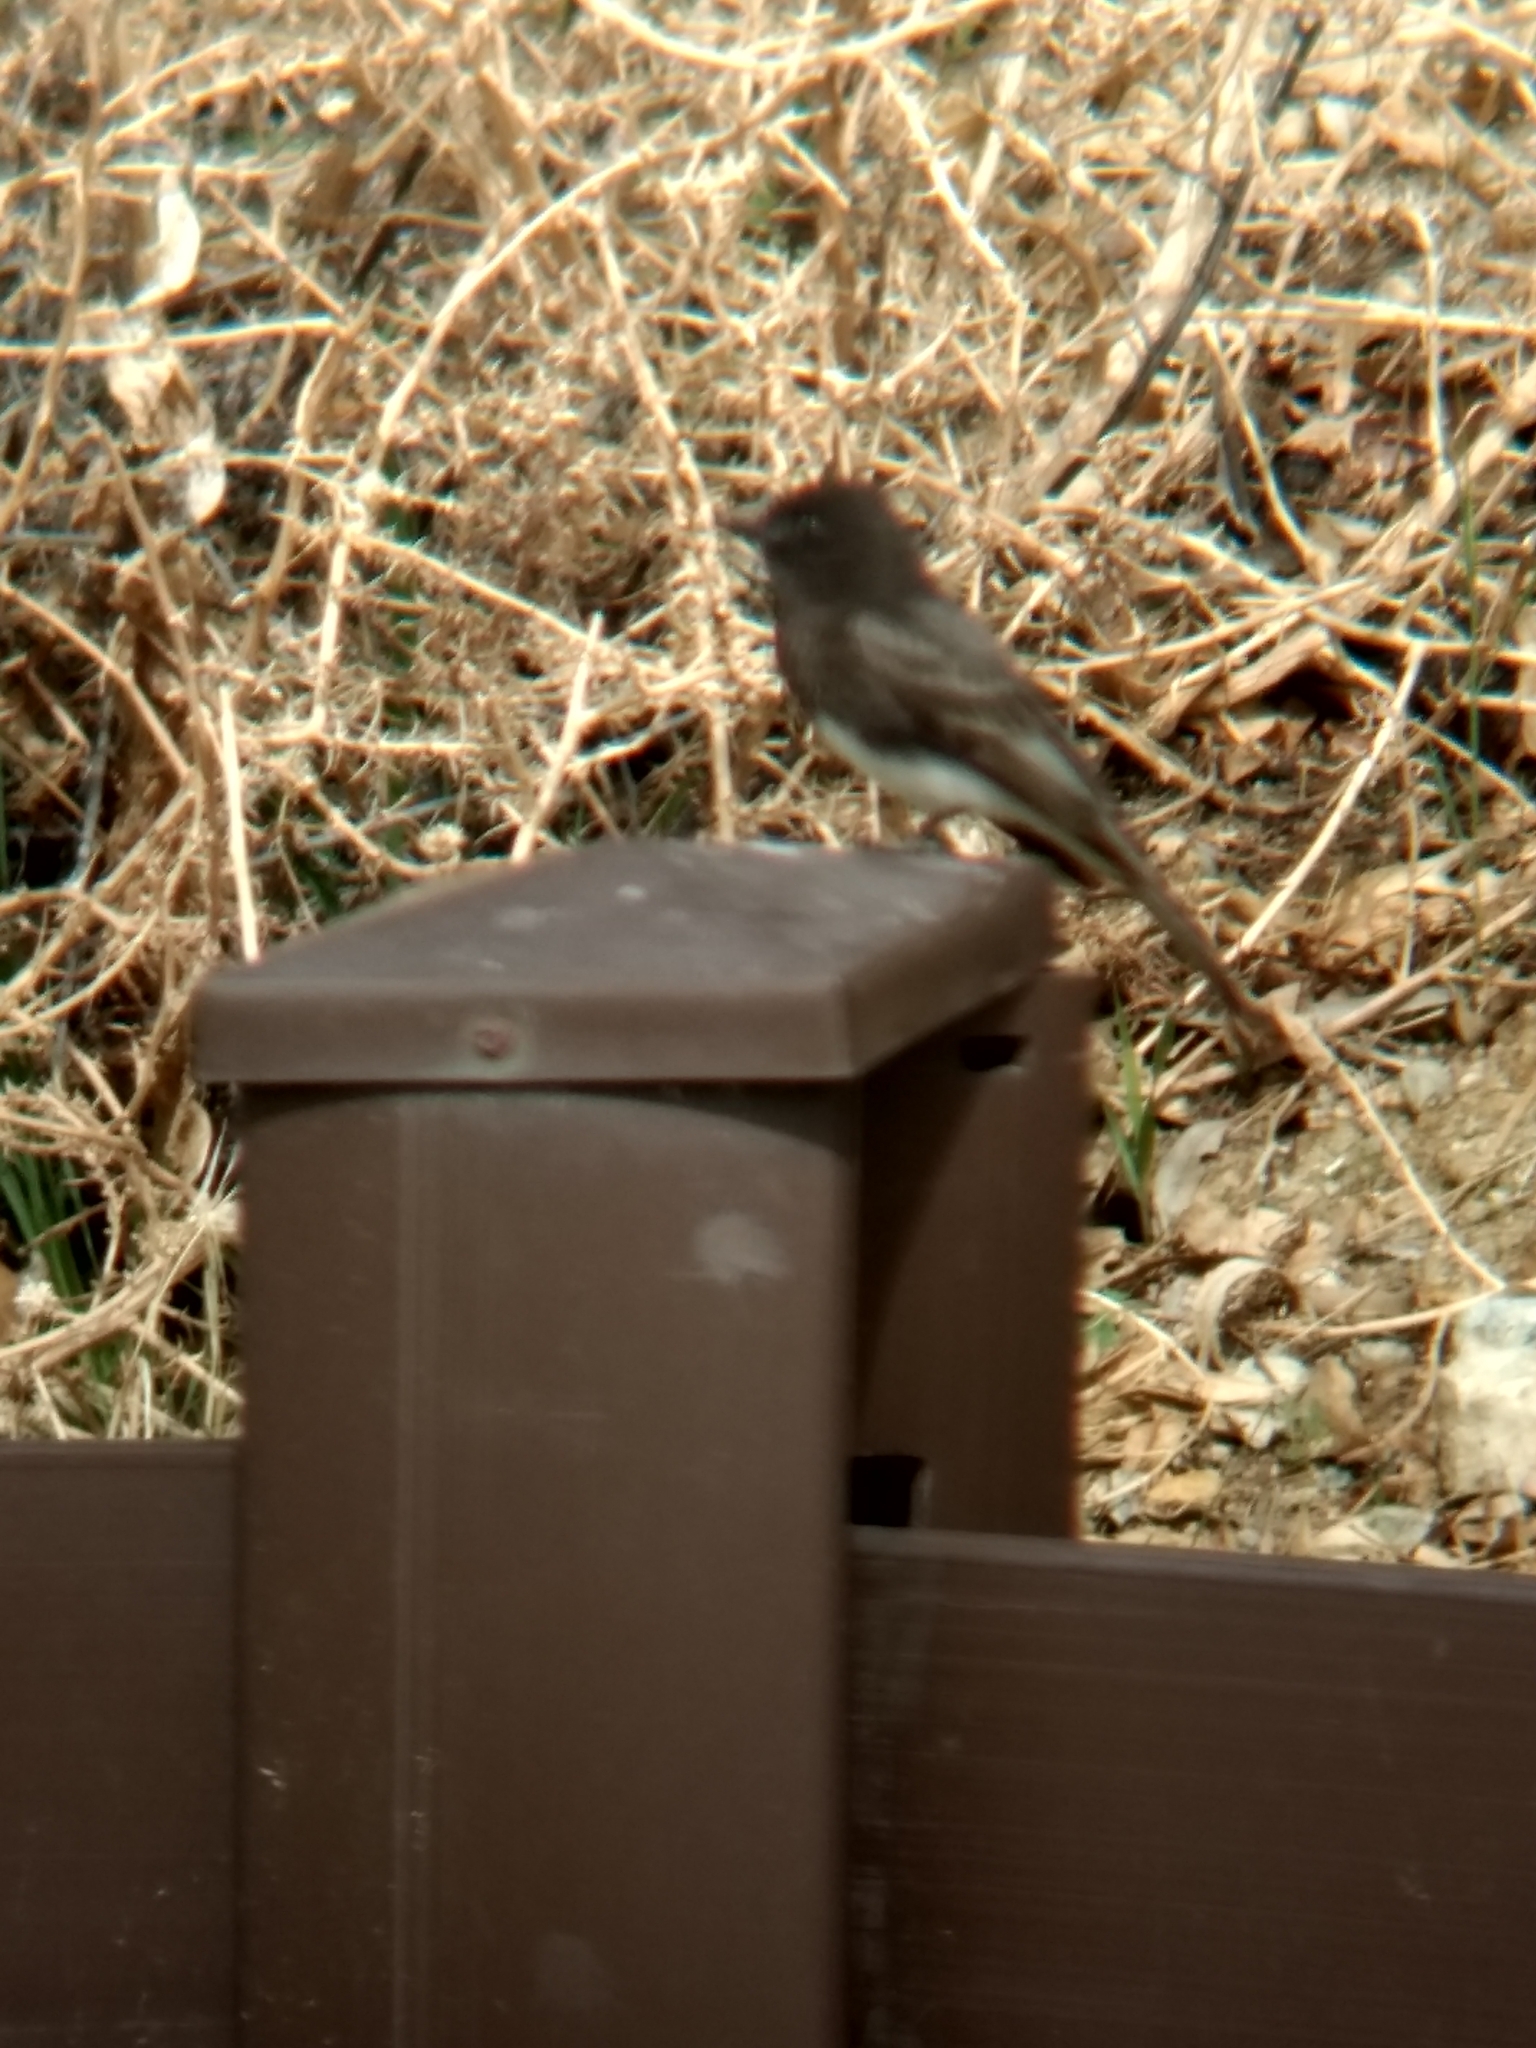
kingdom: Animalia
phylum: Chordata
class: Aves
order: Passeriformes
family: Tyrannidae
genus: Sayornis
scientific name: Sayornis nigricans
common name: Black phoebe
